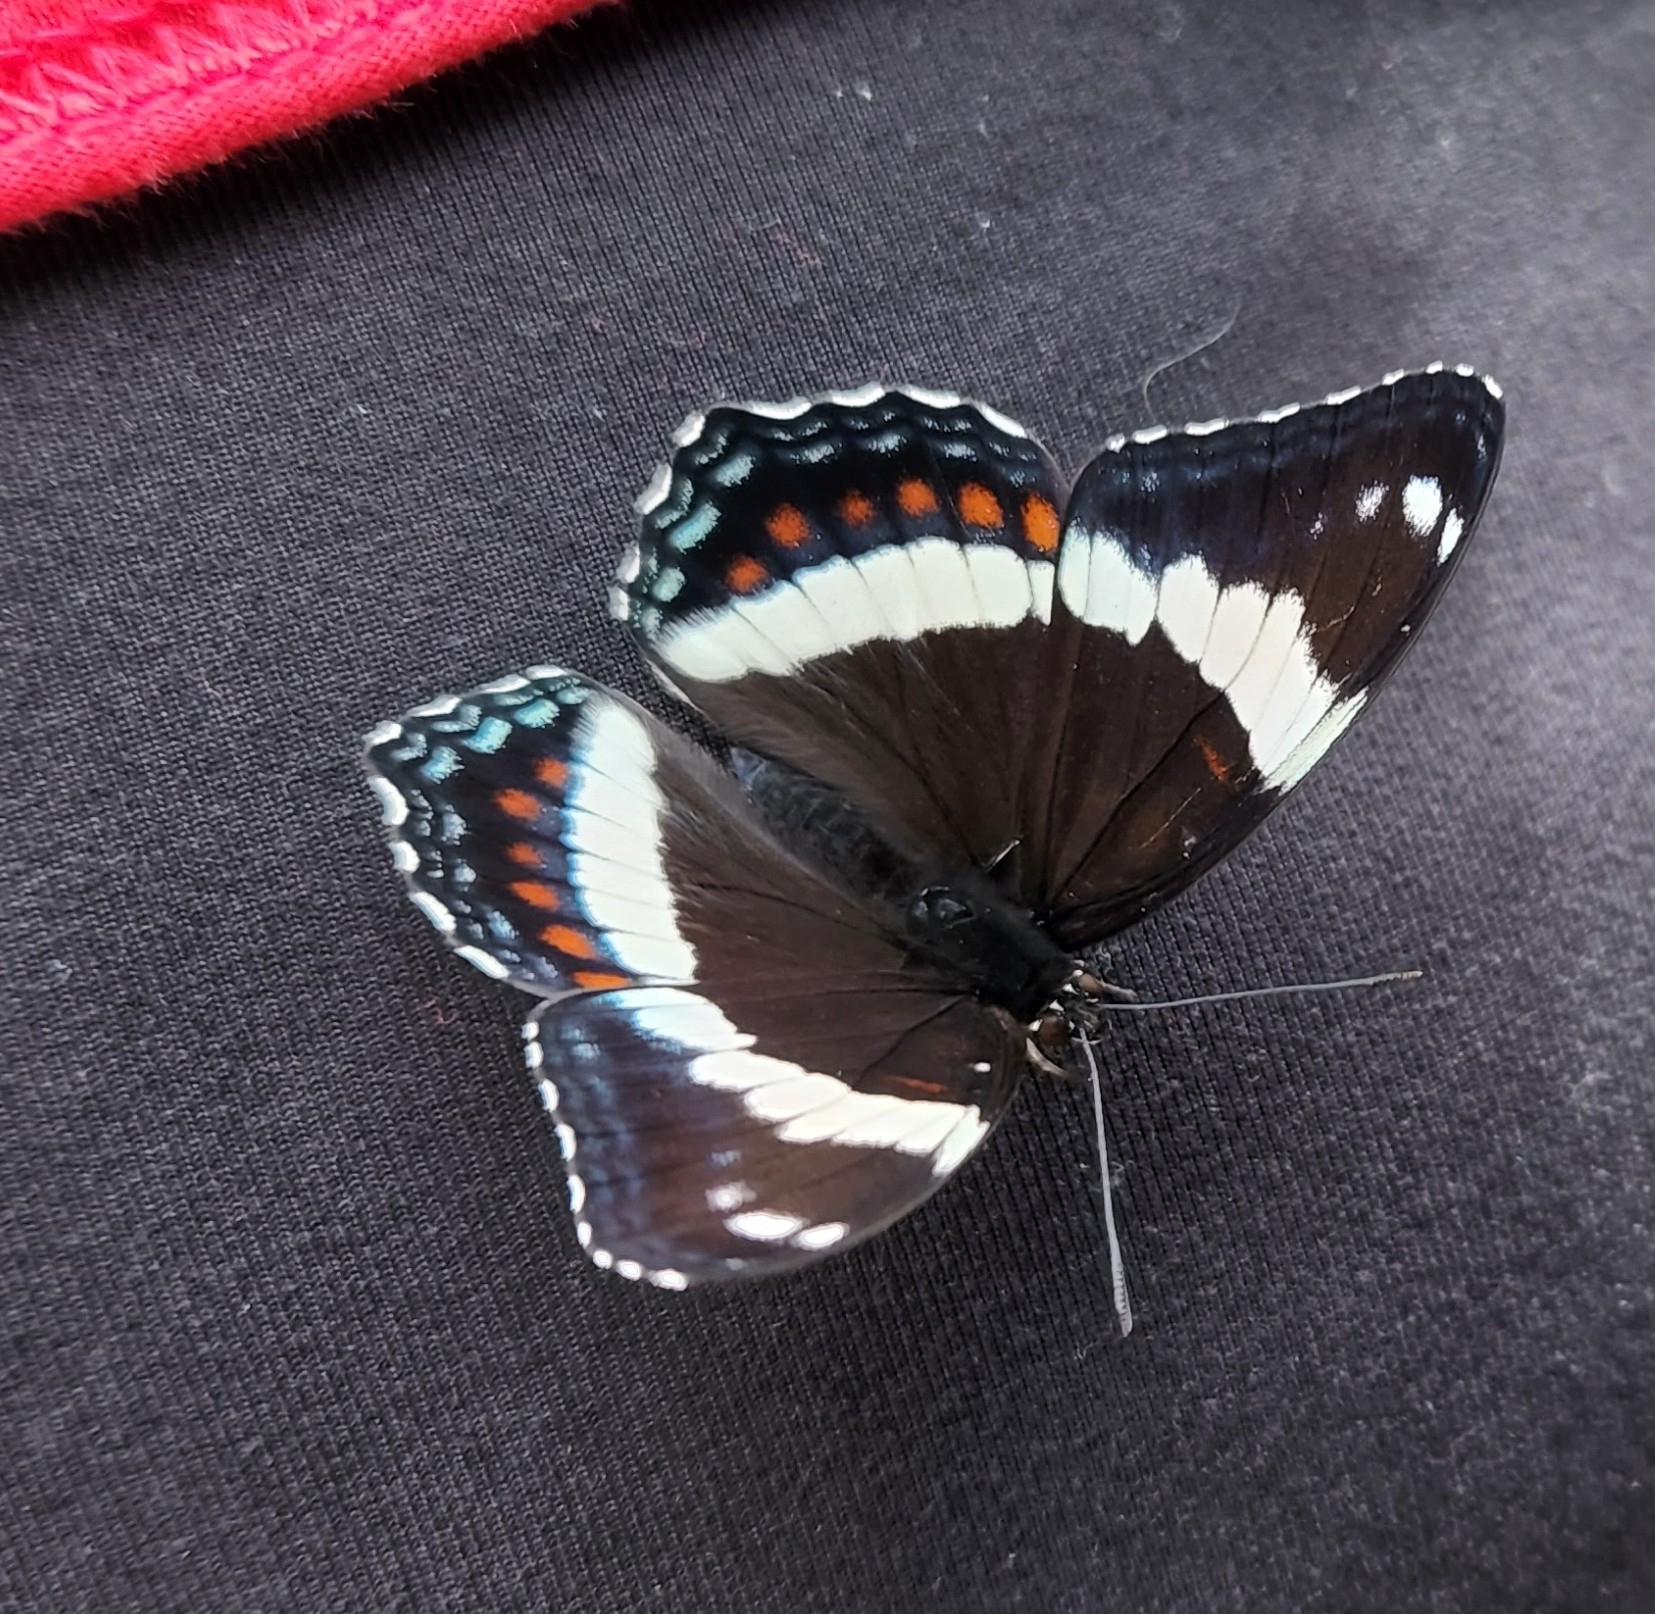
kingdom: Animalia
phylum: Arthropoda
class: Insecta
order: Lepidoptera
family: Nymphalidae
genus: Limenitis
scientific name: Limenitis arthemis
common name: Red-spotted admiral
